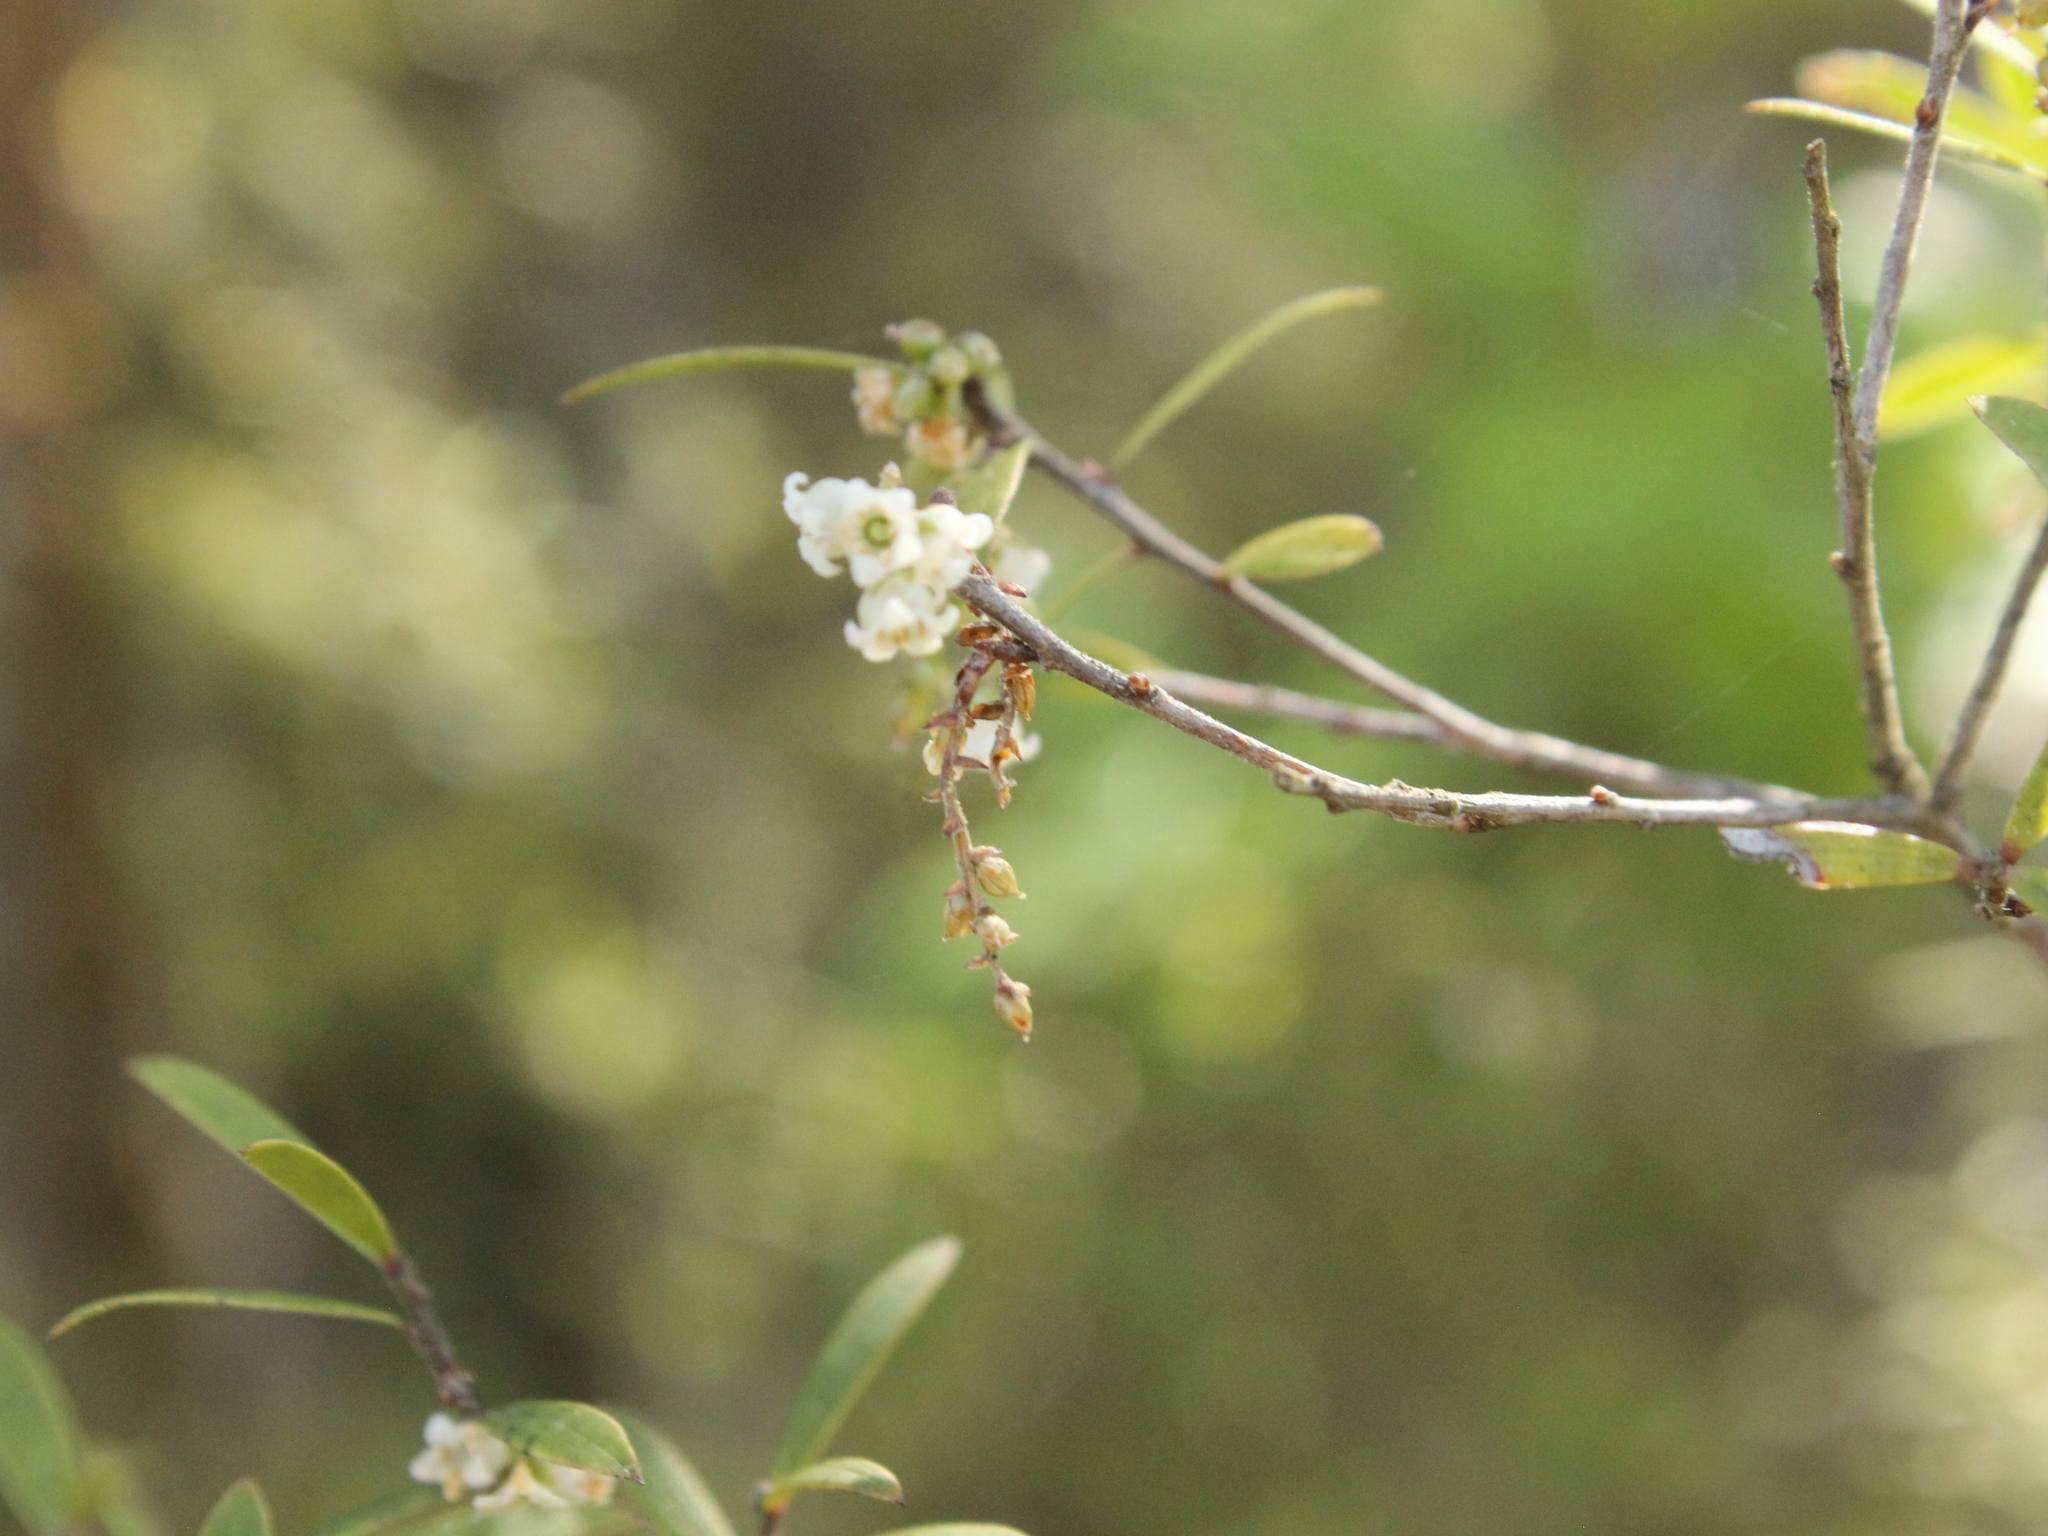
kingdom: Plantae
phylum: Tracheophyta
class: Magnoliopsida
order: Ericales
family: Ericaceae
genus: Leucopogon
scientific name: Leucopogon fasciculatus
